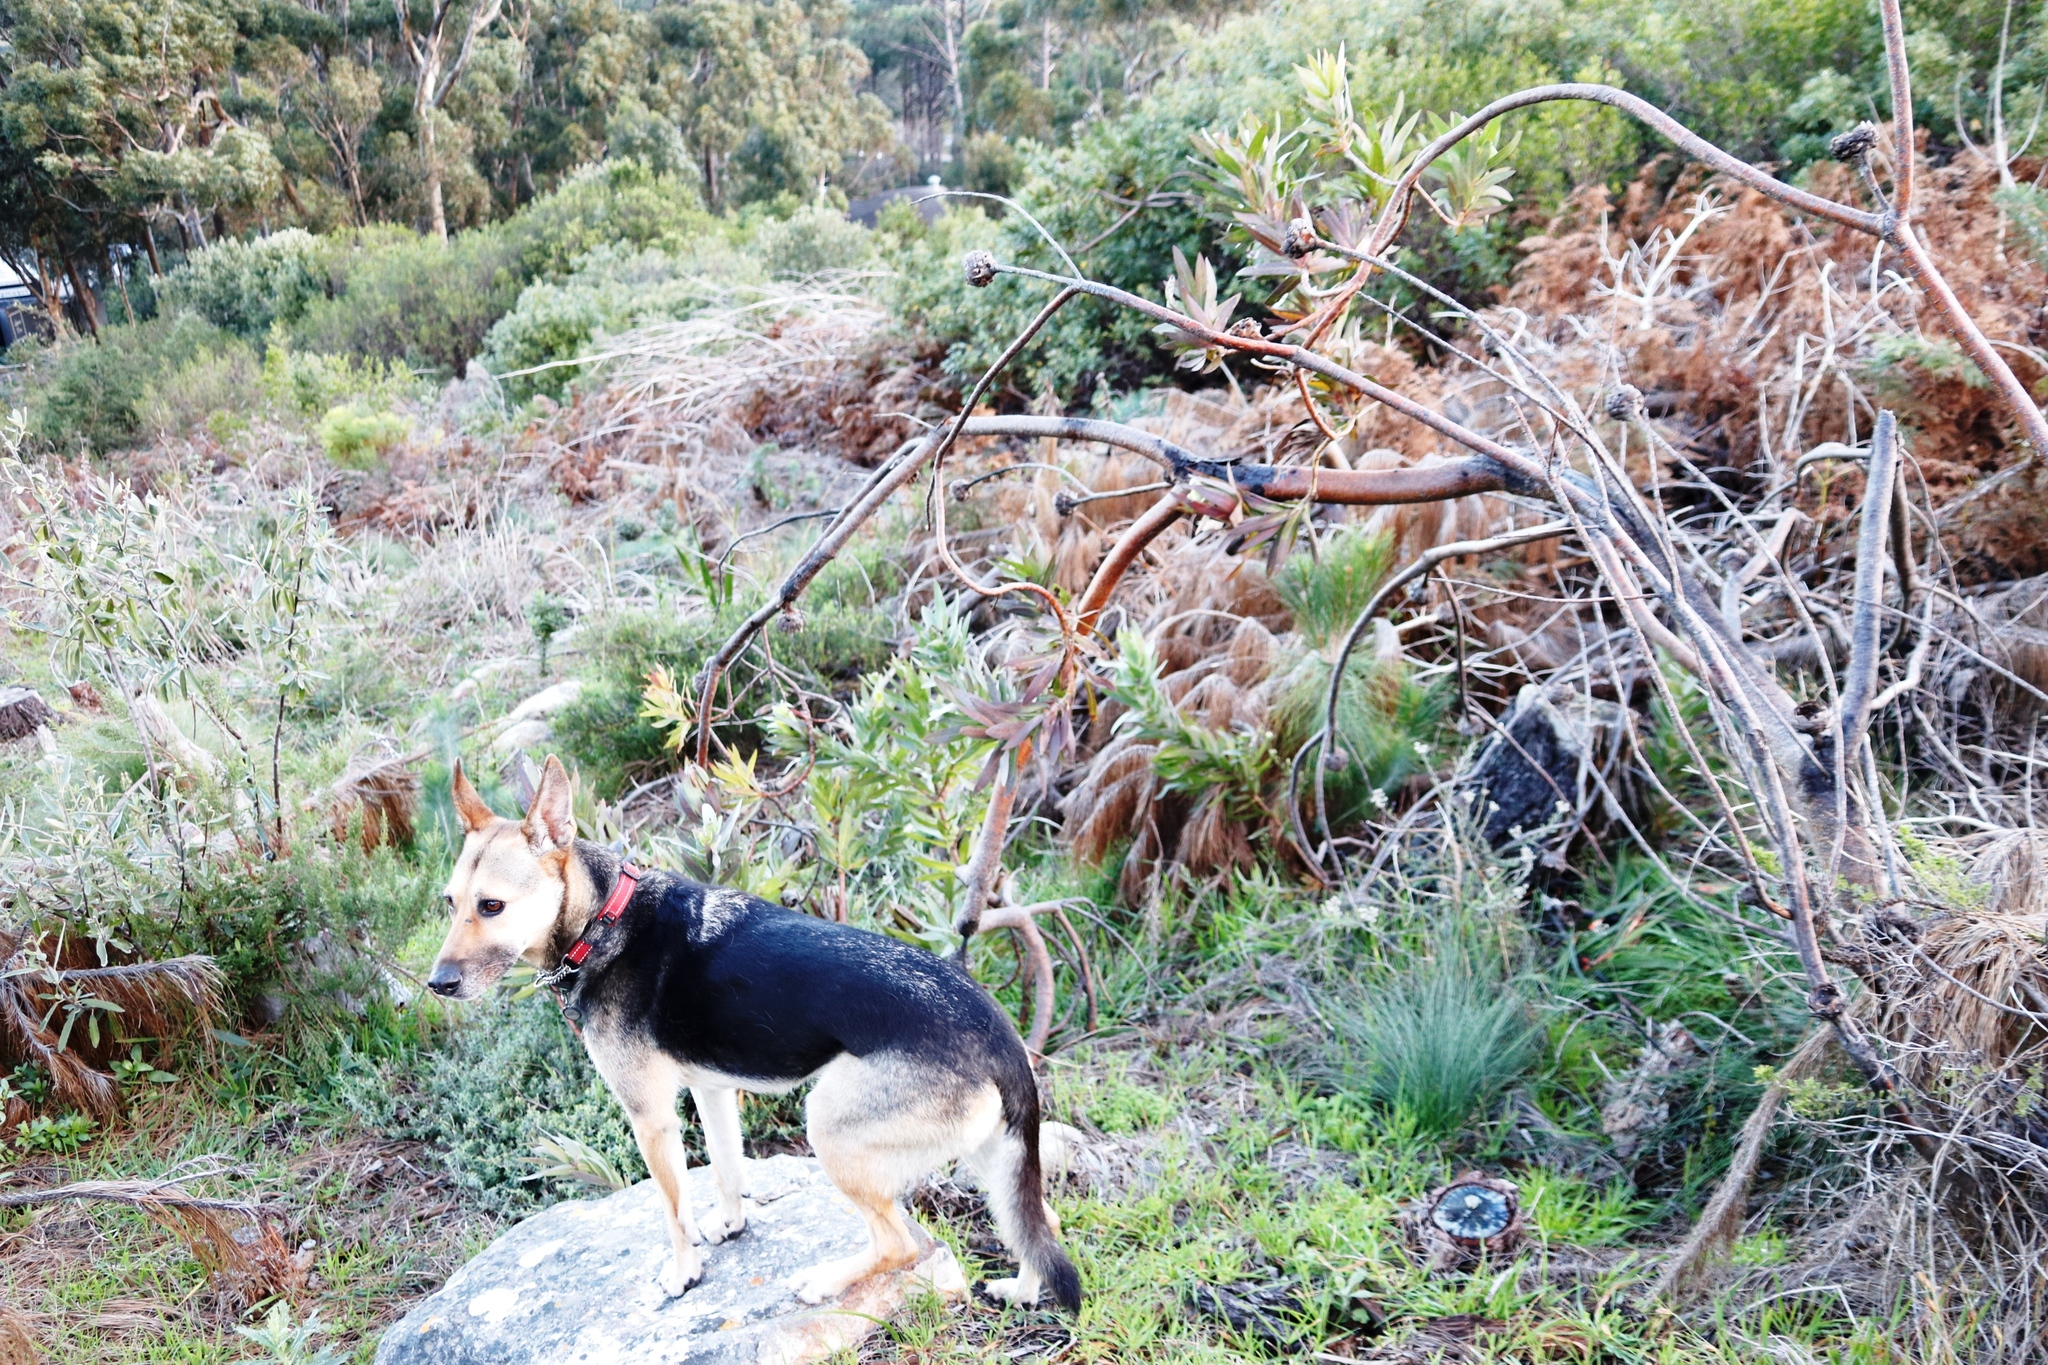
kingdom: Plantae
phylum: Tracheophyta
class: Magnoliopsida
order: Proteales
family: Proteaceae
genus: Protea
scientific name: Protea coronata
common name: Green sugarbush
